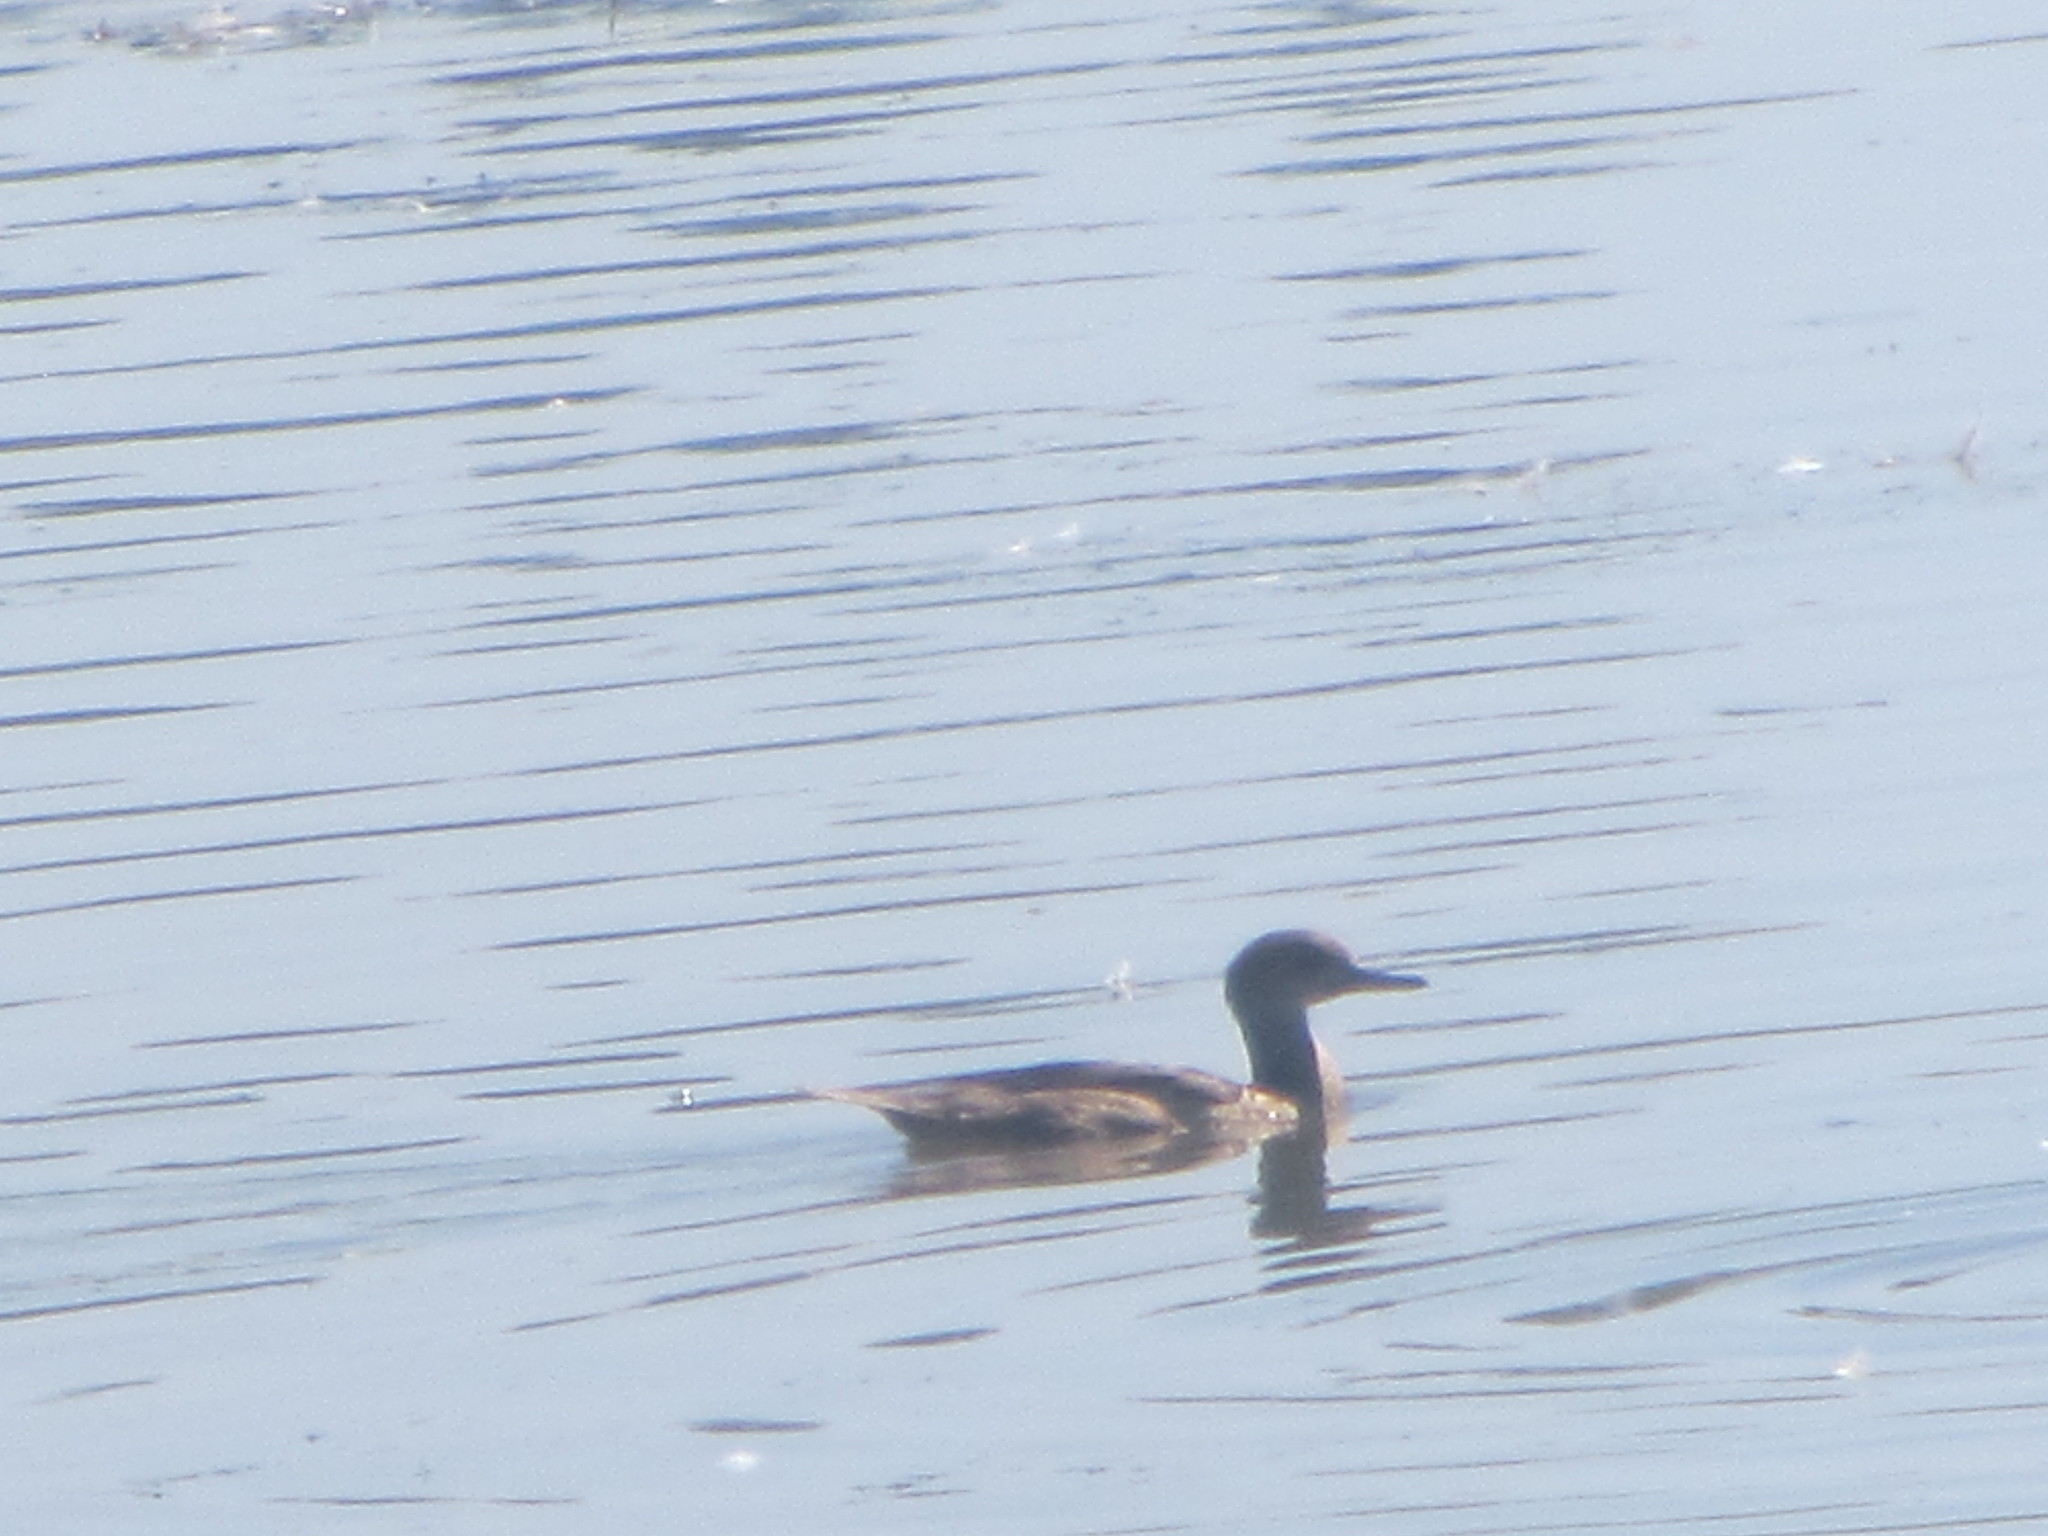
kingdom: Animalia
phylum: Chordata
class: Aves
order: Anseriformes
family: Anatidae
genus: Lophodytes
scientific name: Lophodytes cucullatus
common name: Hooded merganser
